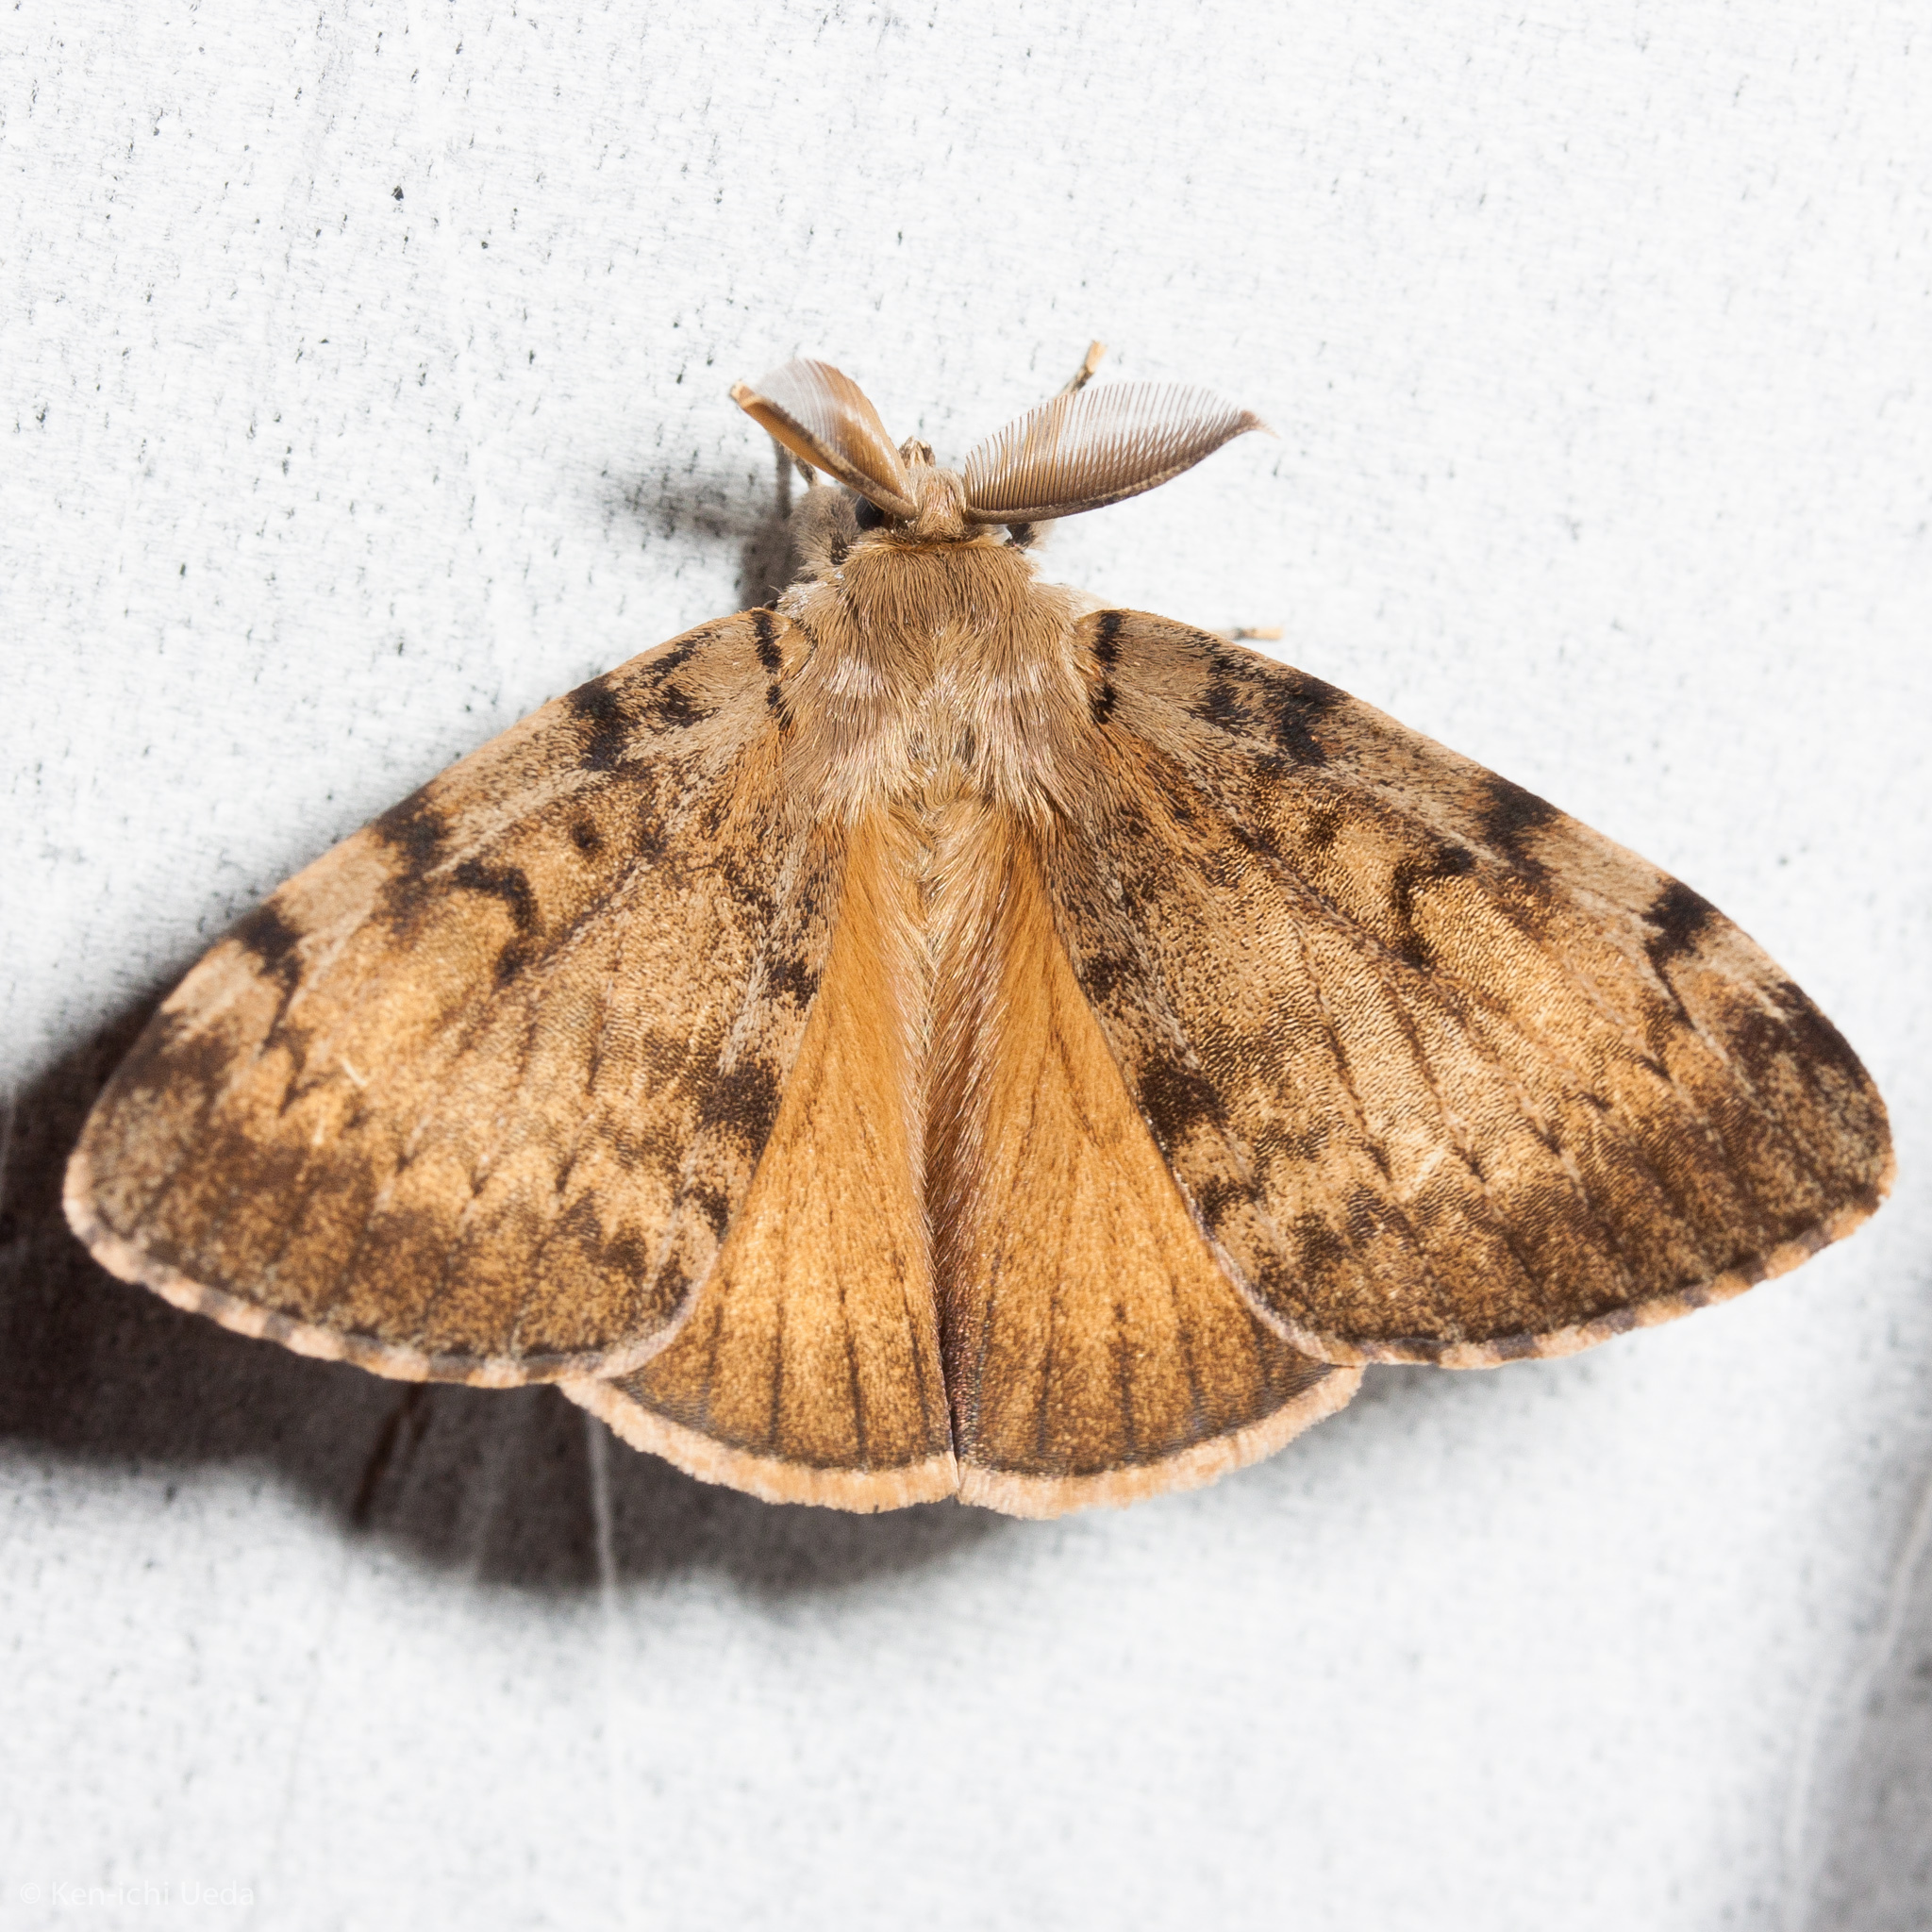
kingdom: Animalia
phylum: Arthropoda
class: Insecta
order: Lepidoptera
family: Erebidae
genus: Lymantria
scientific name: Lymantria dispar
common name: Gypsy moth
